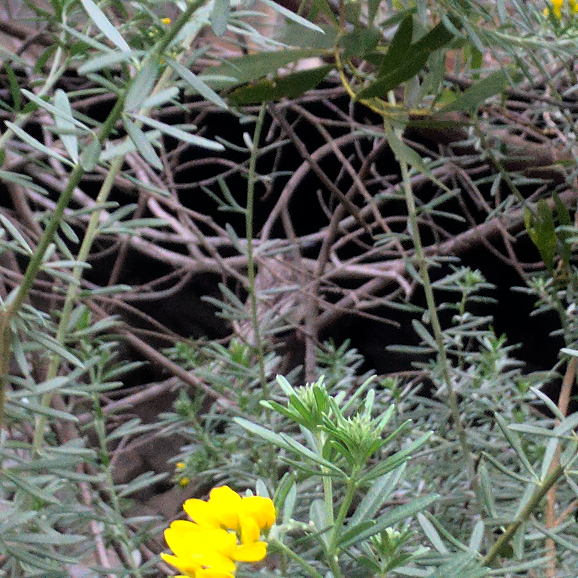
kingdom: Animalia
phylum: Chordata
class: Aves
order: Passeriformes
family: Meliphagidae
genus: Anthochaera
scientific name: Anthochaera carunculata
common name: Red wattlebird
